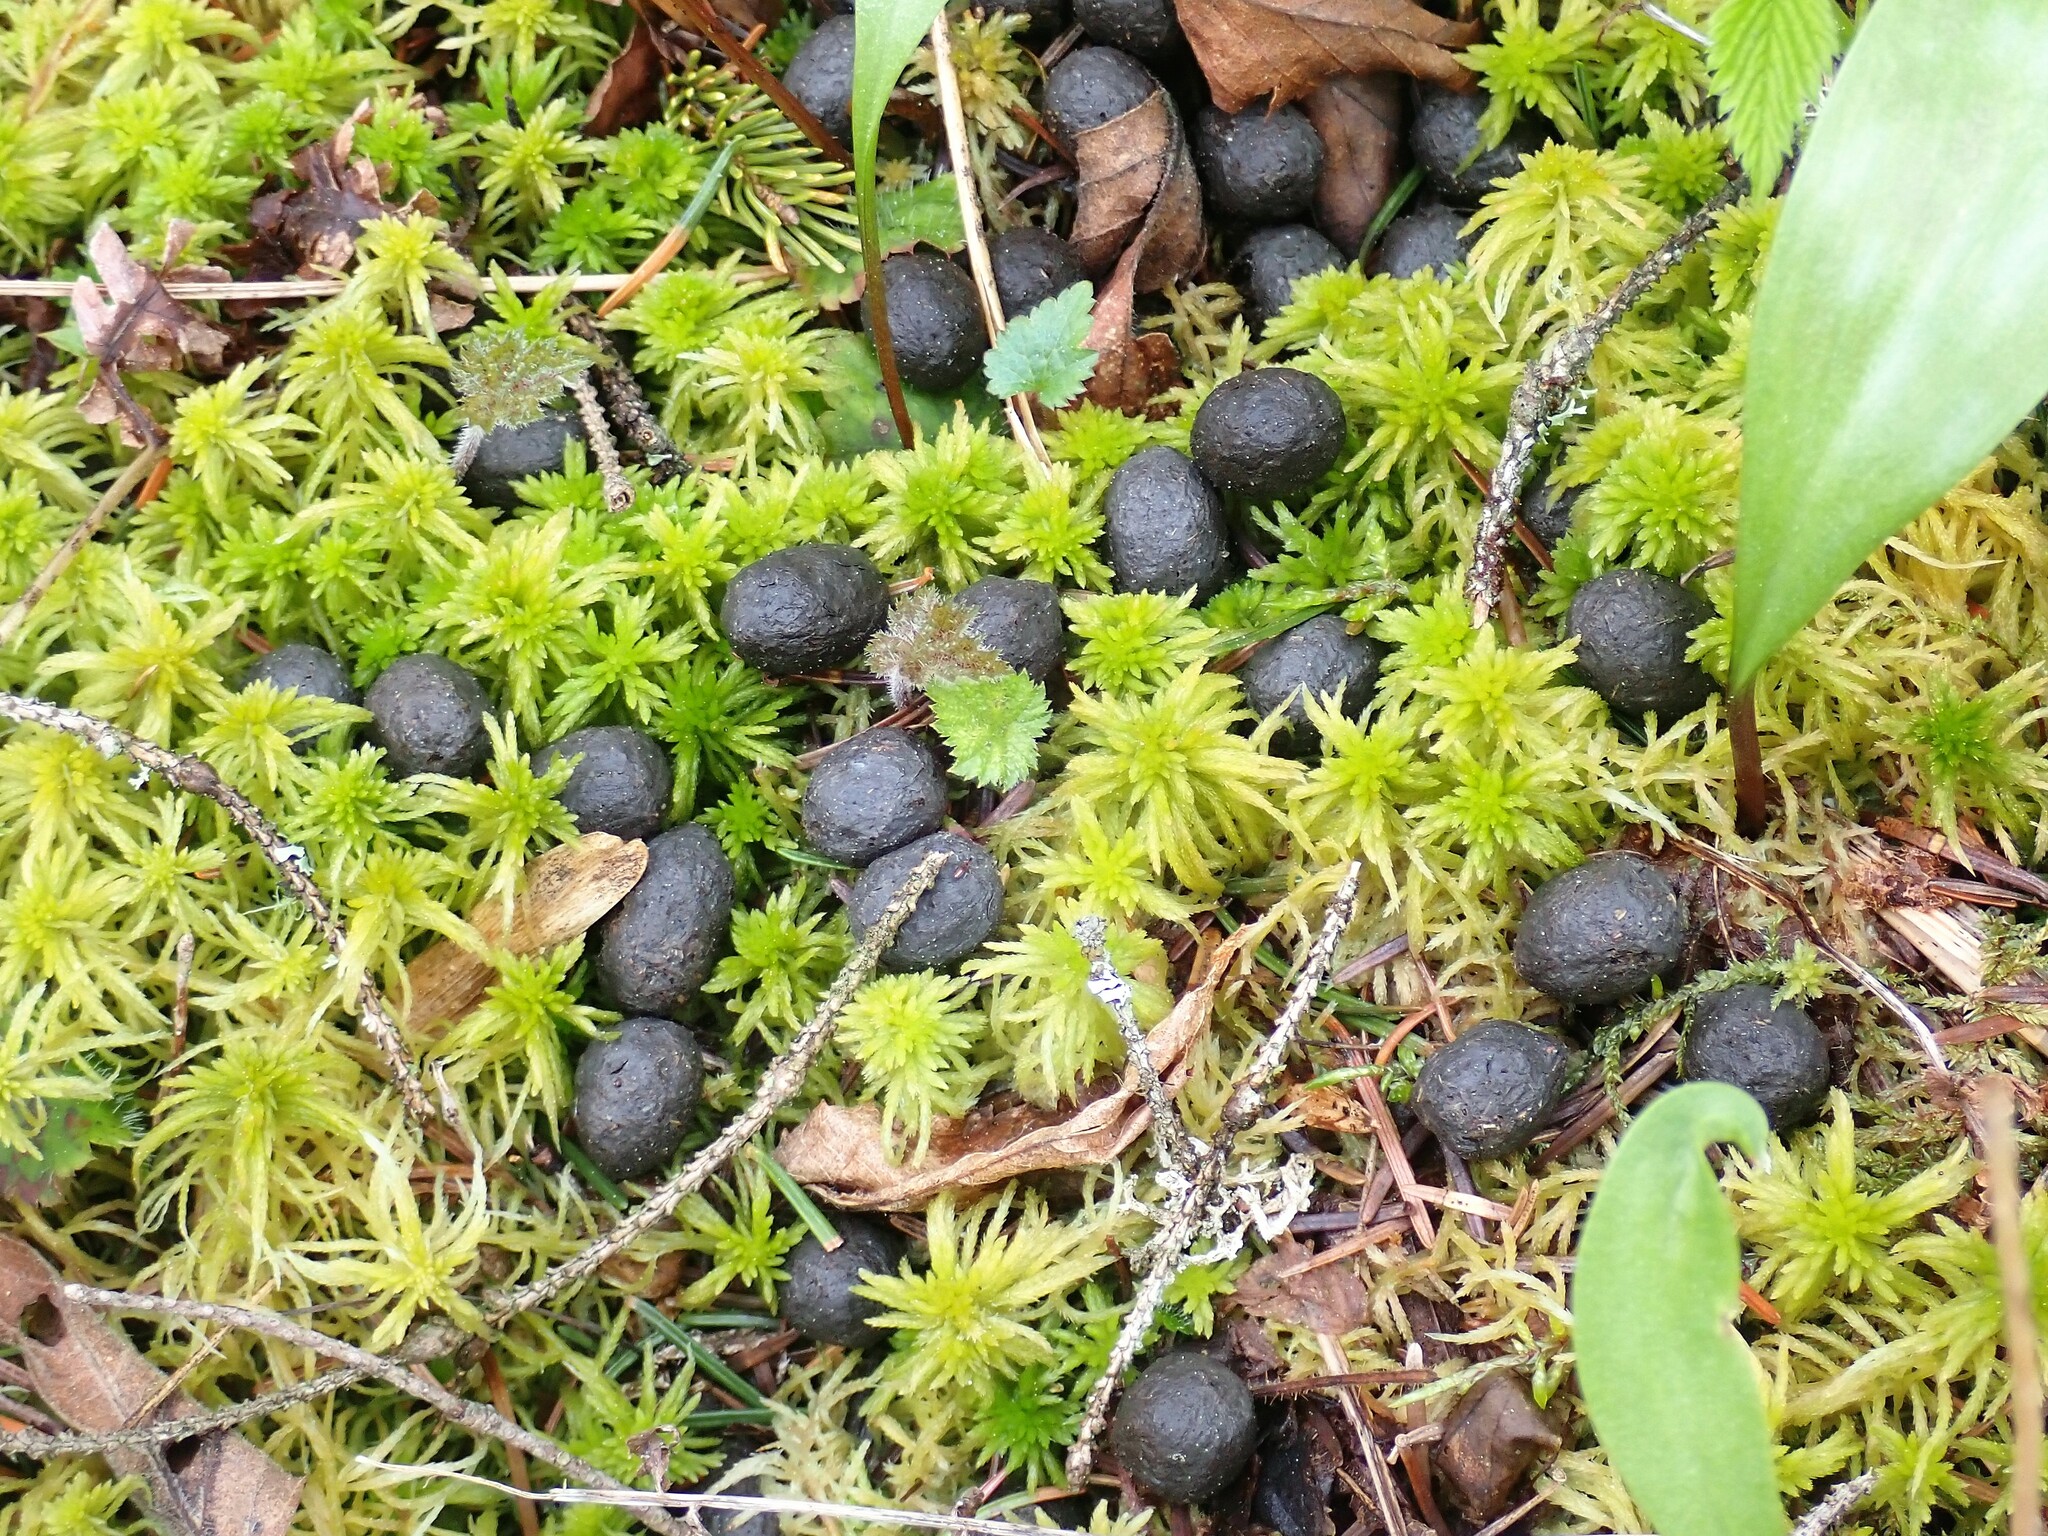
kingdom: Animalia
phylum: Chordata
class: Mammalia
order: Artiodactyla
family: Cervidae
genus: Odocoileus
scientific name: Odocoileus virginianus
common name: White-tailed deer
